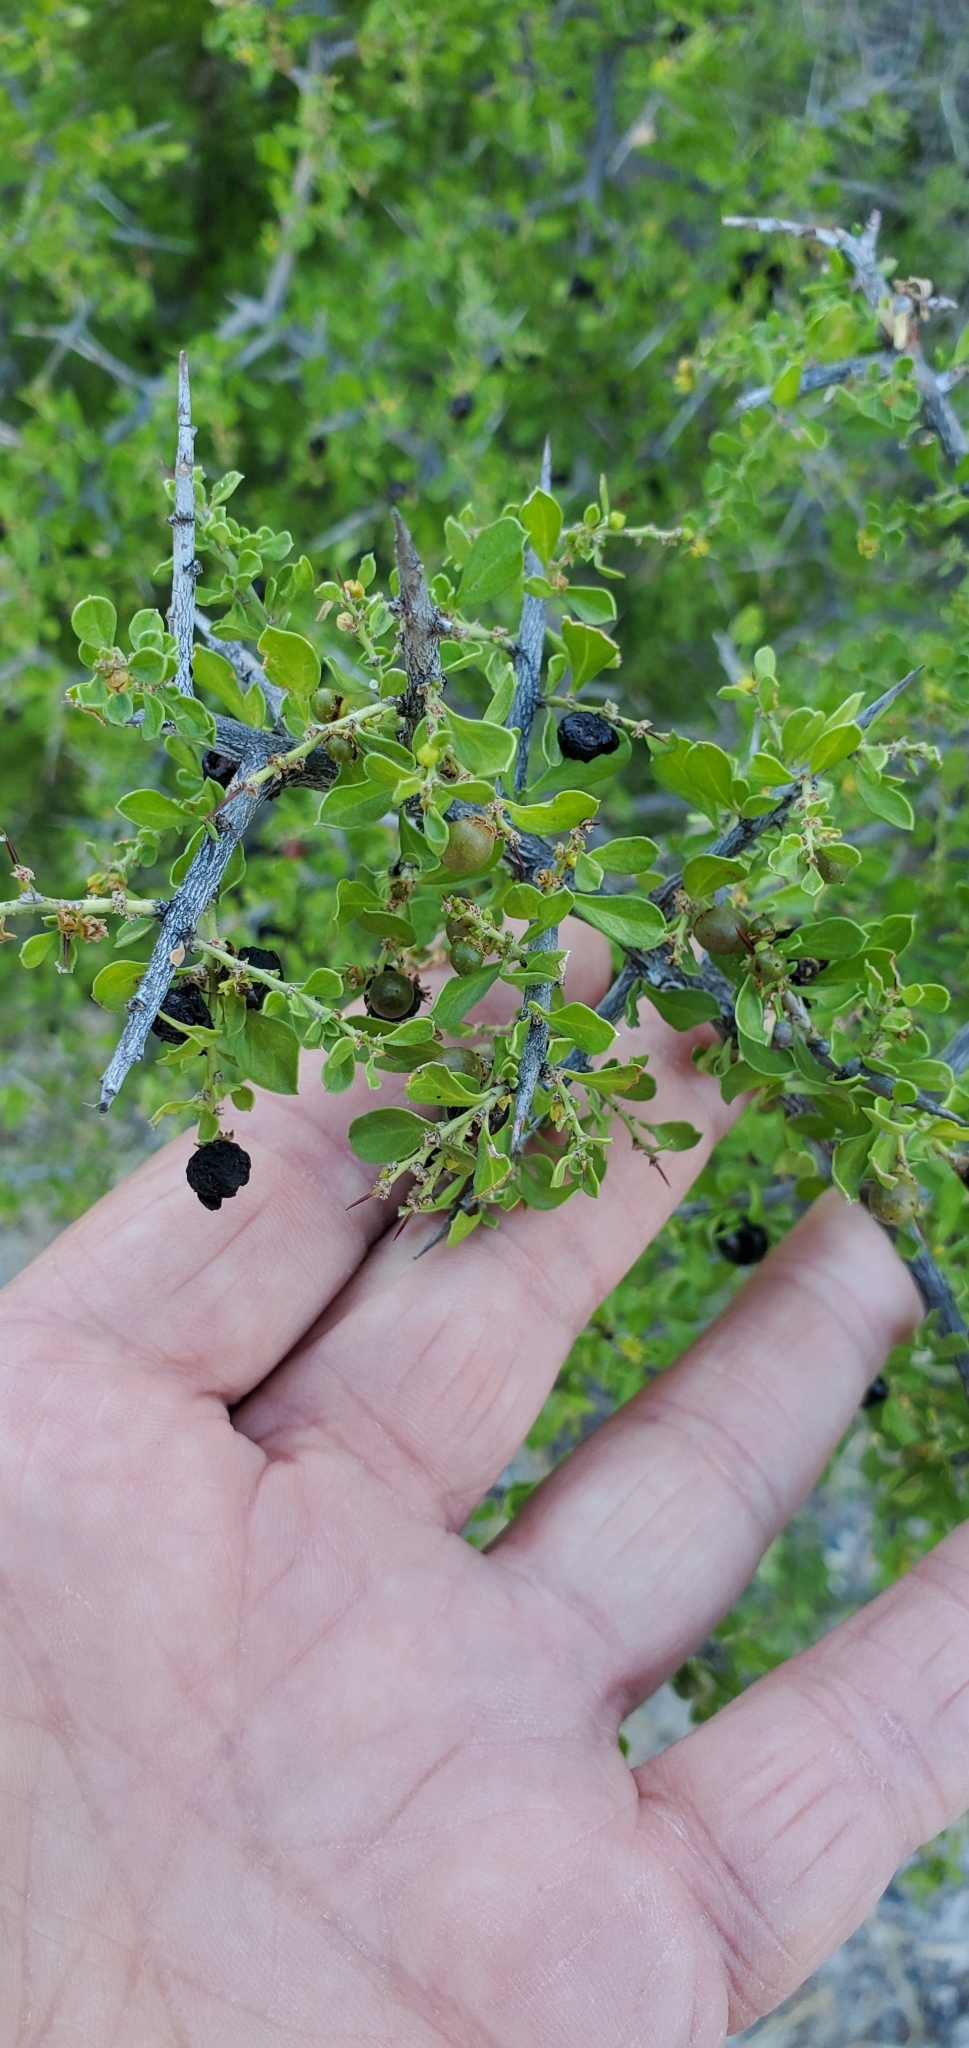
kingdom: Plantae
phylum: Tracheophyta
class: Magnoliopsida
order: Rosales
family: Rhamnaceae
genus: Condalia
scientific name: Condalia viridis
